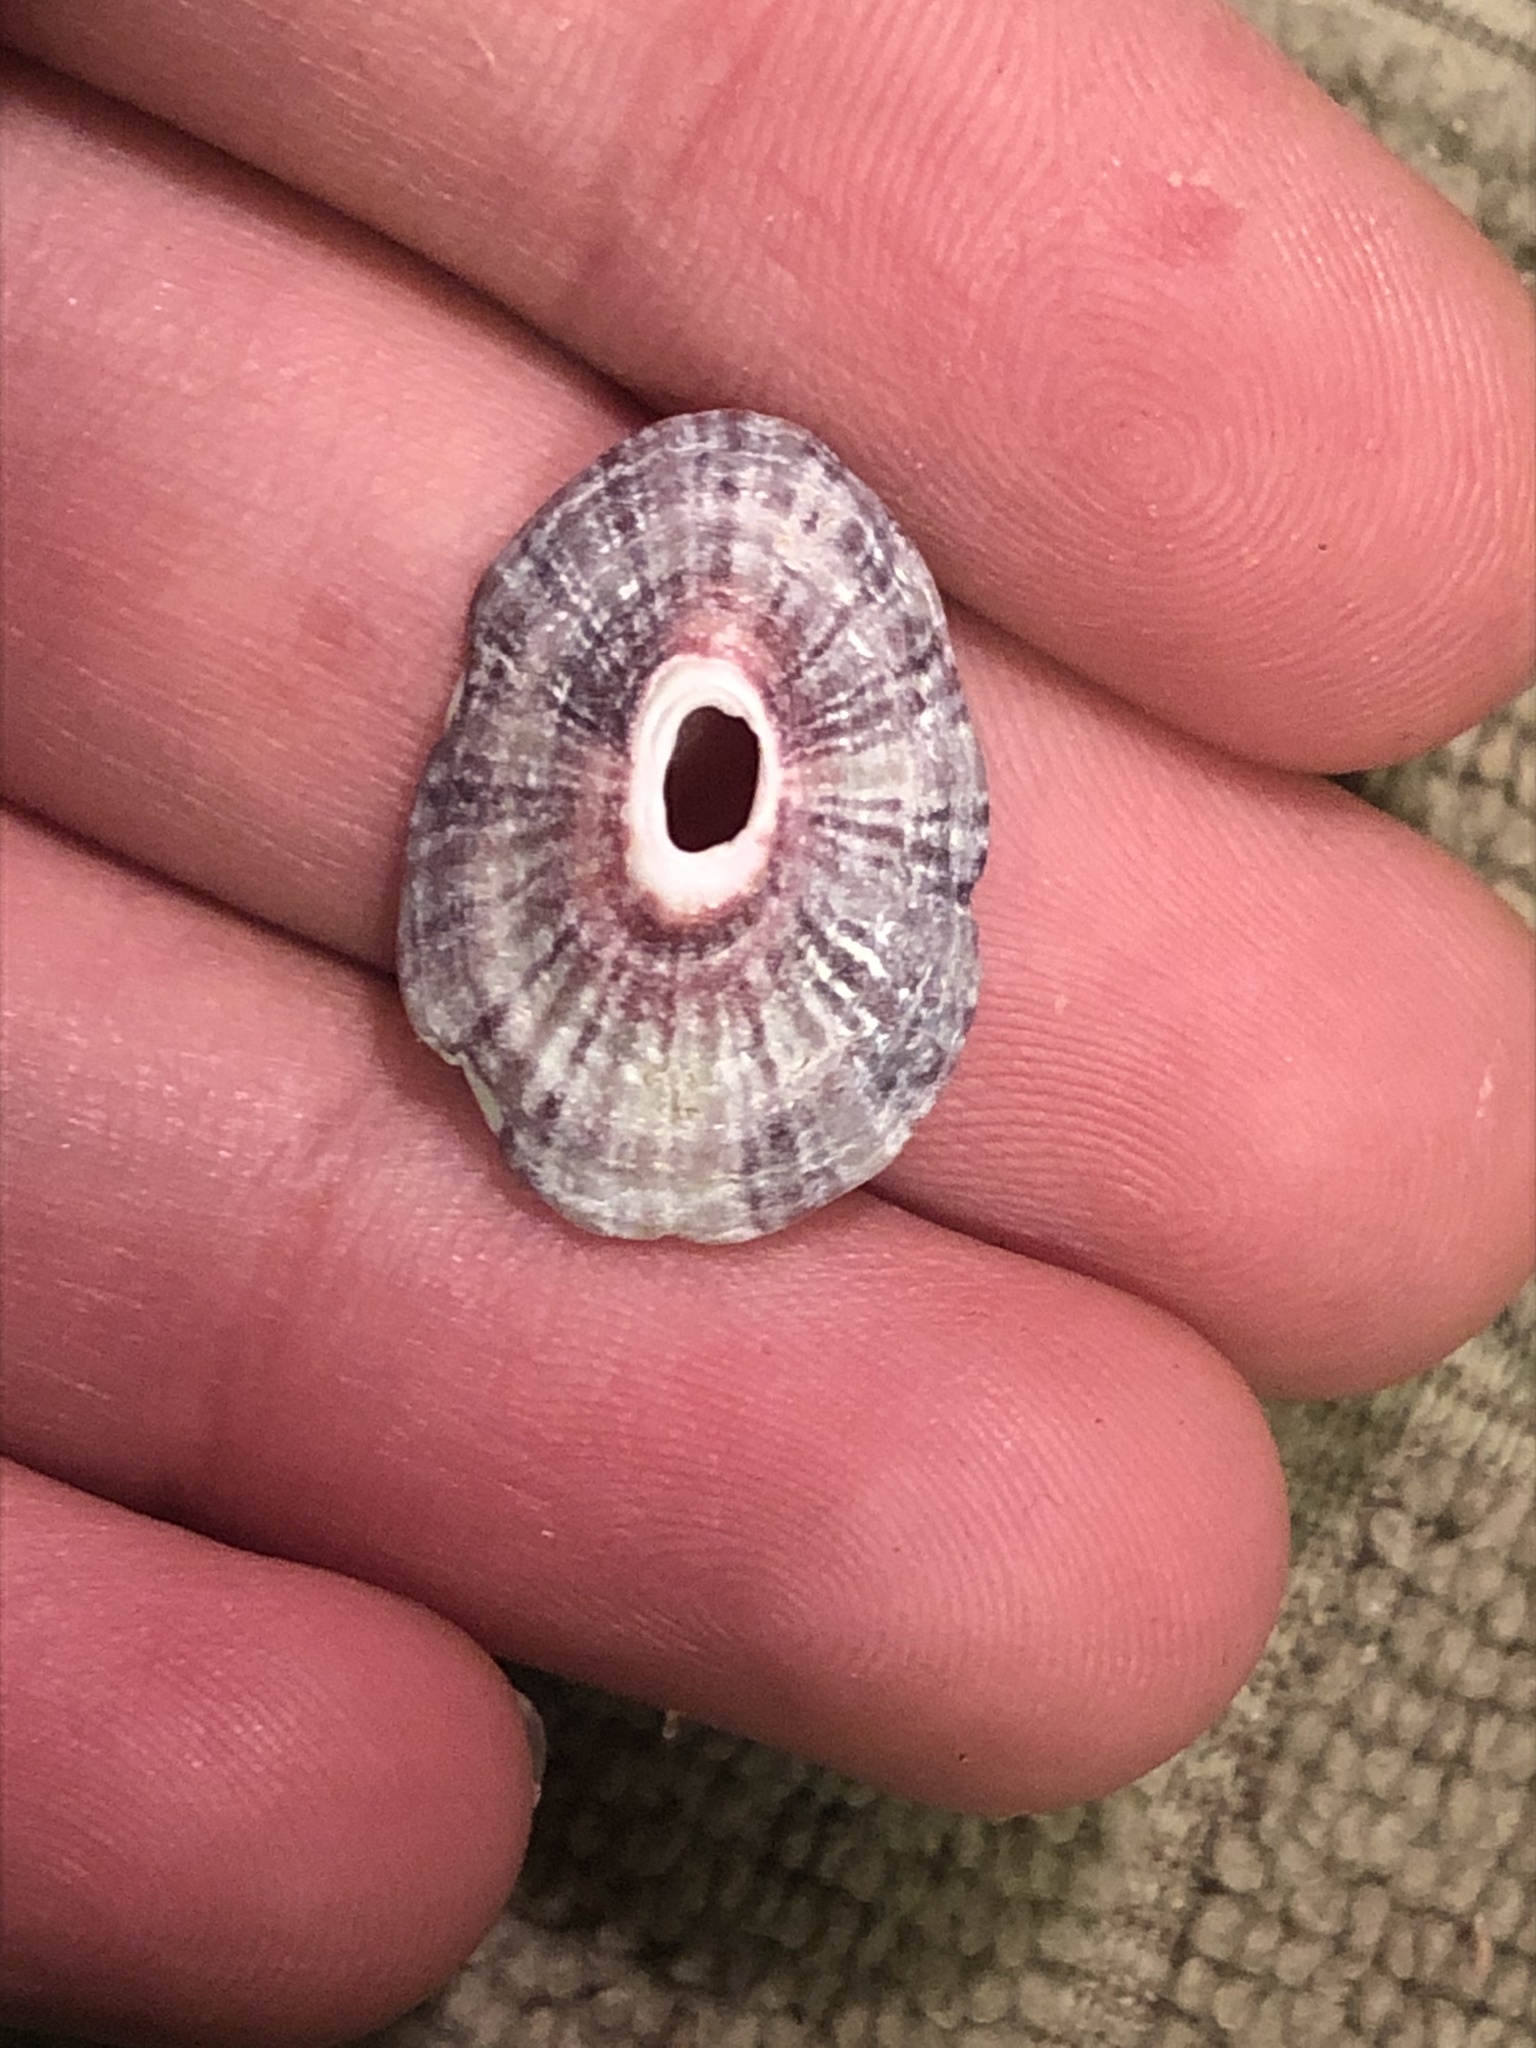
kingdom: Animalia
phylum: Mollusca
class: Gastropoda
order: Lepetellida
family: Fissurellidae
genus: Fissurella
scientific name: Fissurella volcano
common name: Volcano keyhole limpet
